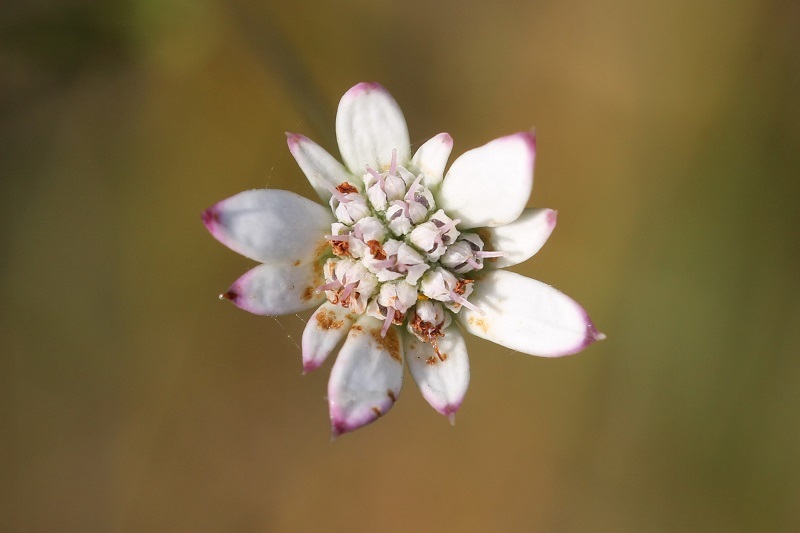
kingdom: Plantae
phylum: Tracheophyta
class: Magnoliopsida
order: Apiales
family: Apiaceae
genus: Alepidea
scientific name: Alepidea capensis
